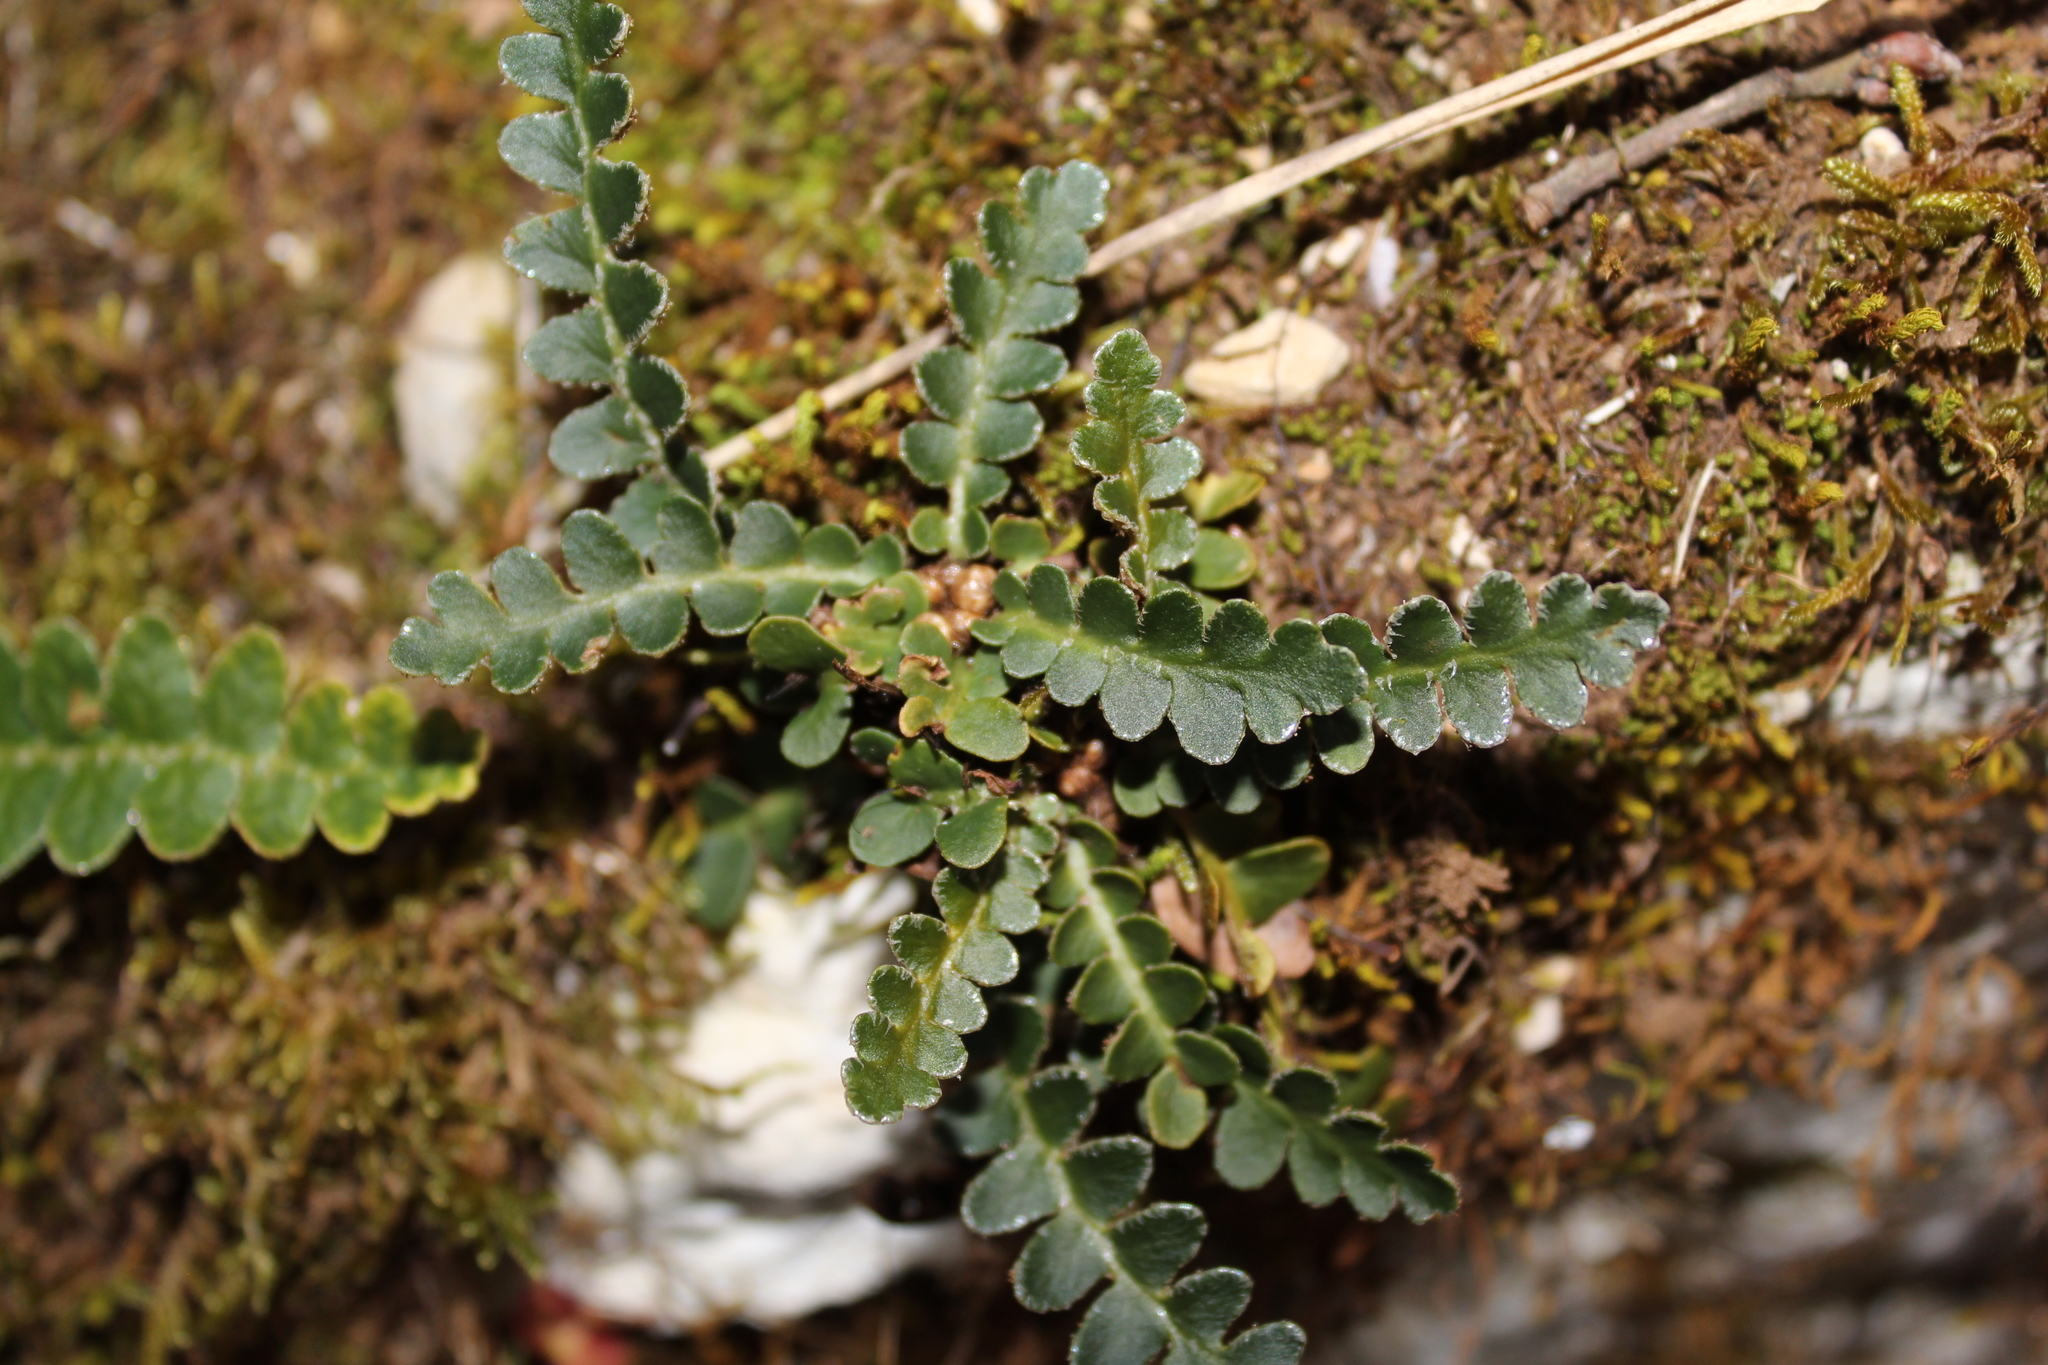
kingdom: Plantae
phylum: Tracheophyta
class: Polypodiopsida
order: Polypodiales
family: Aspleniaceae
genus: Asplenium
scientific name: Asplenium ceterach
